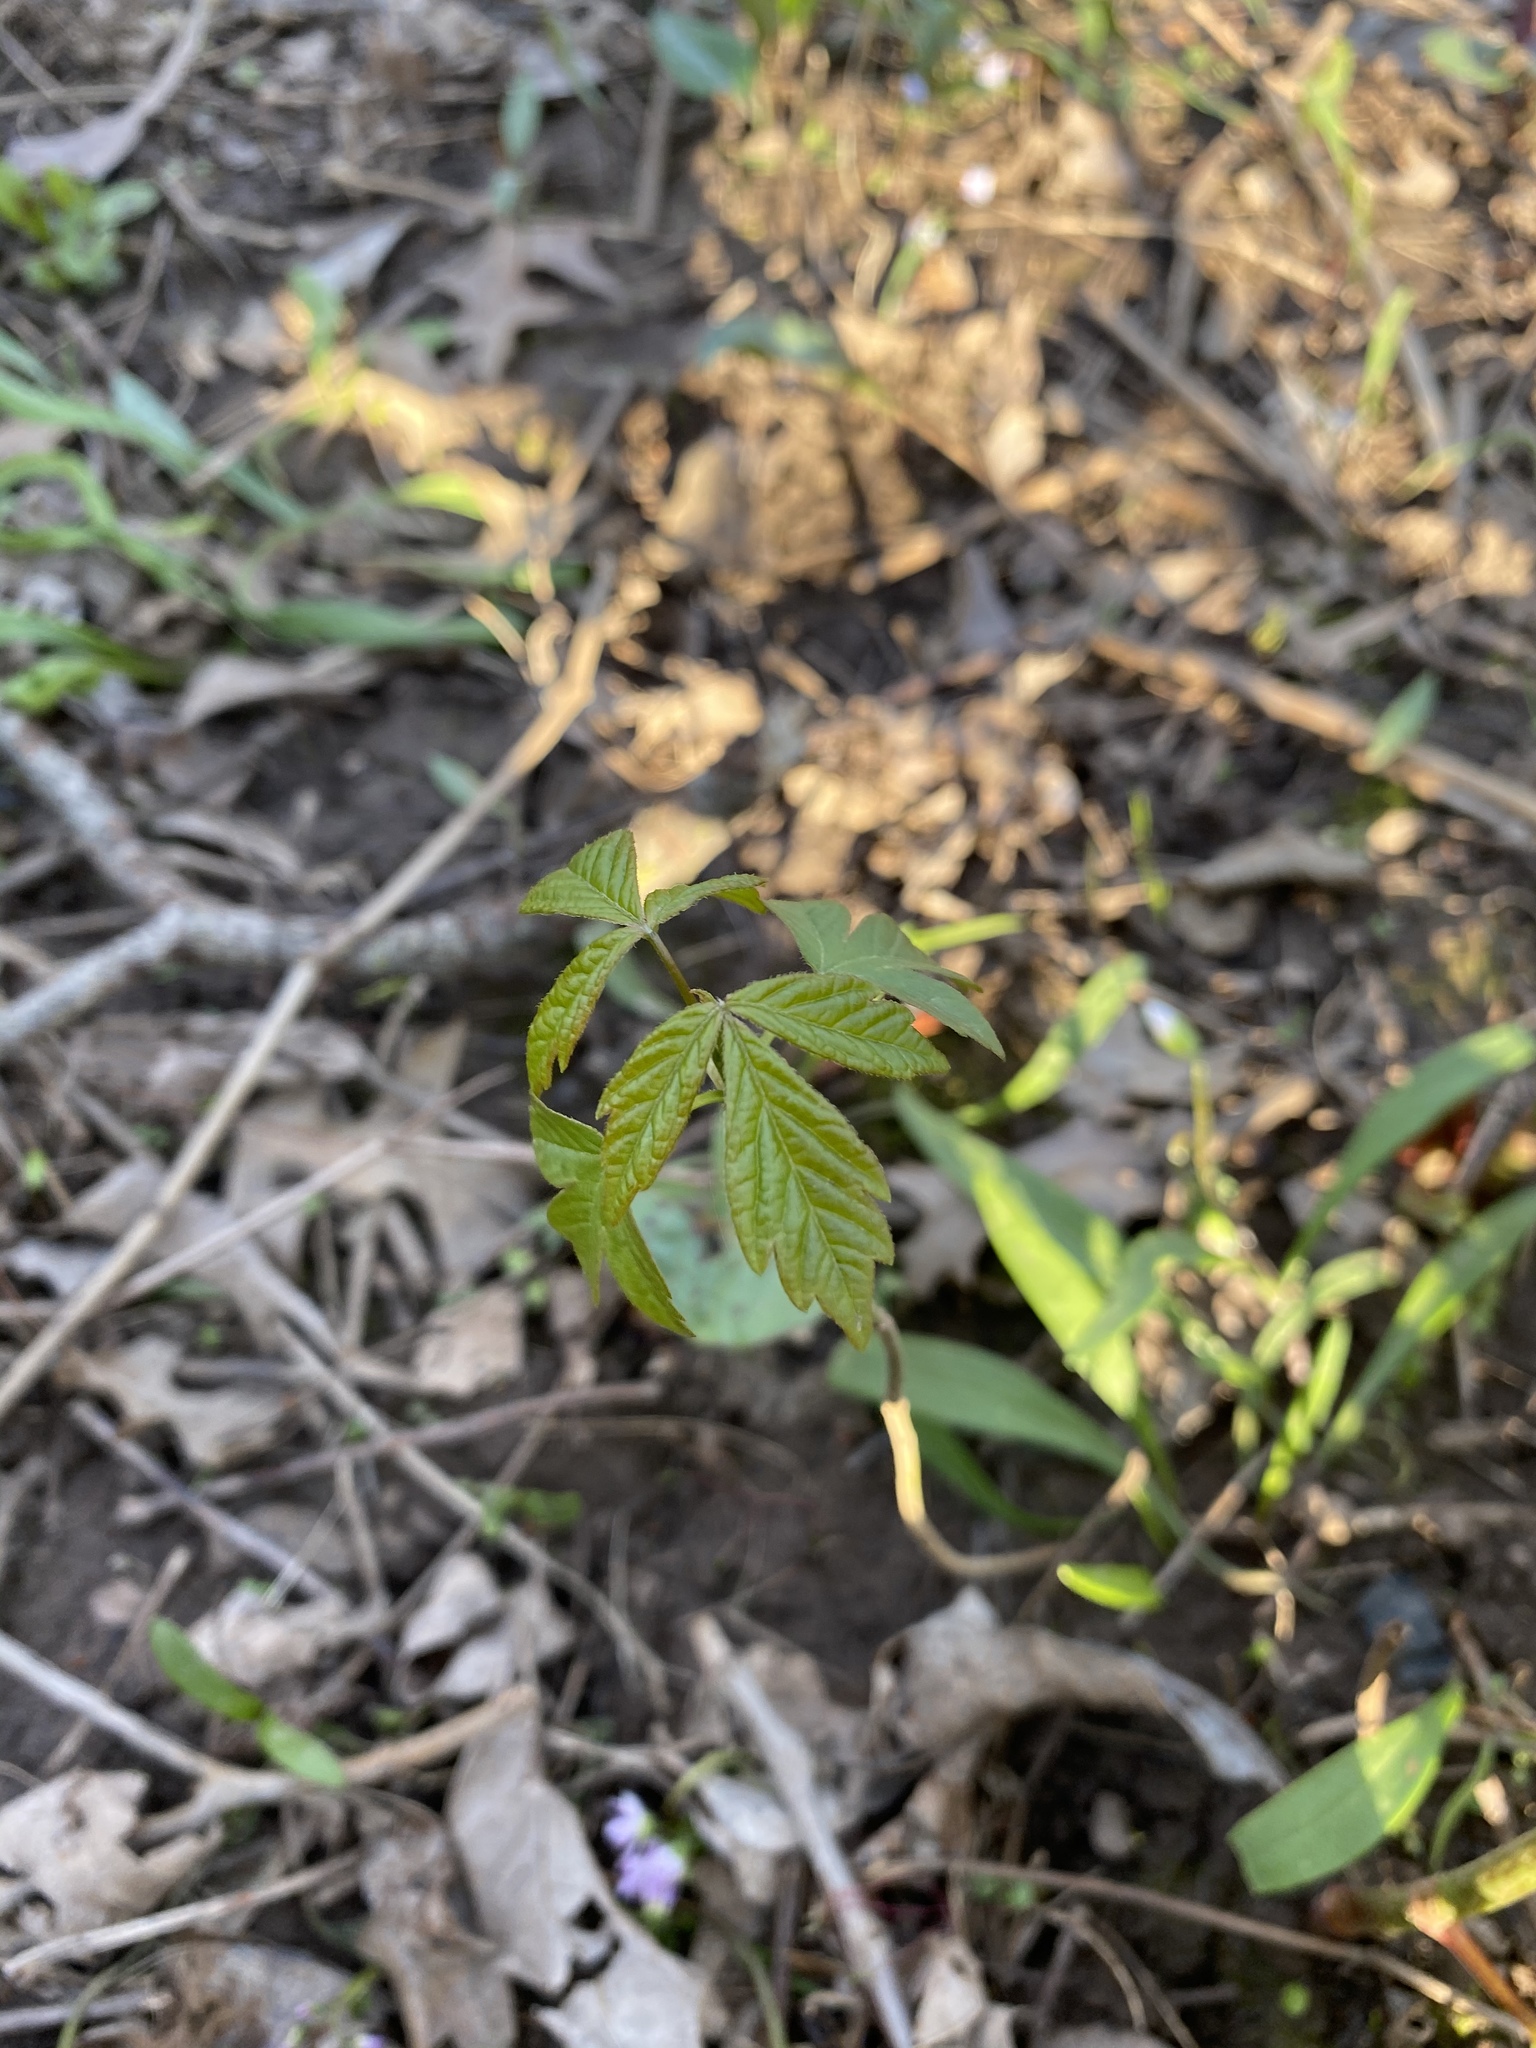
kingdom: Plantae
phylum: Tracheophyta
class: Magnoliopsida
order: Sapindales
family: Sapindaceae
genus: Acer
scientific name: Acer negundo
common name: Ashleaf maple
